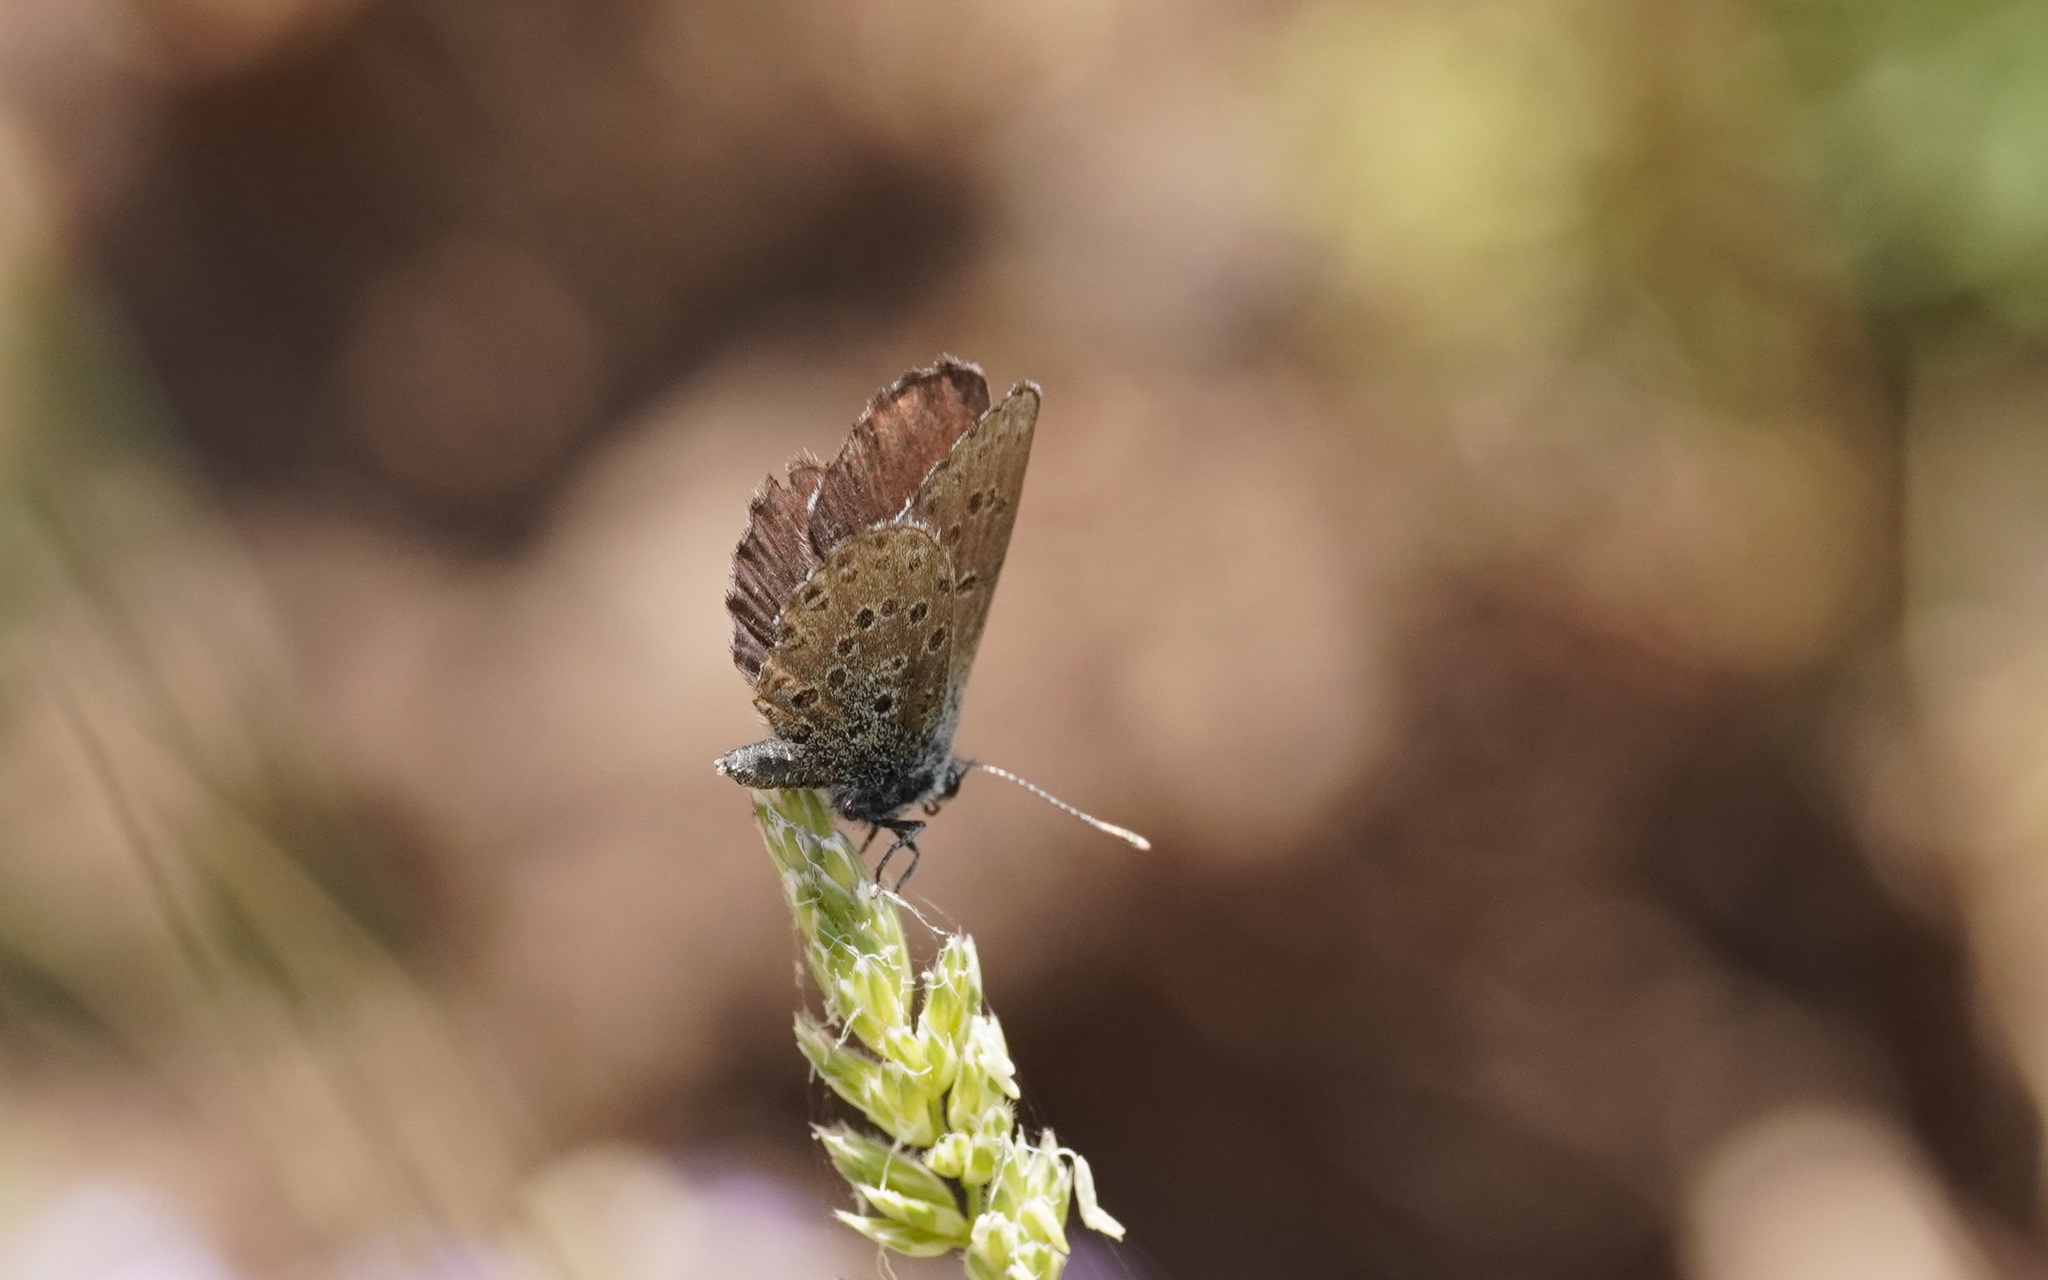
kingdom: Animalia
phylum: Arthropoda
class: Insecta
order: Lepidoptera
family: Lycaenidae
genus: Pseudophilotes
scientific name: Pseudophilotes barbagiae
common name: Sardinian blue
